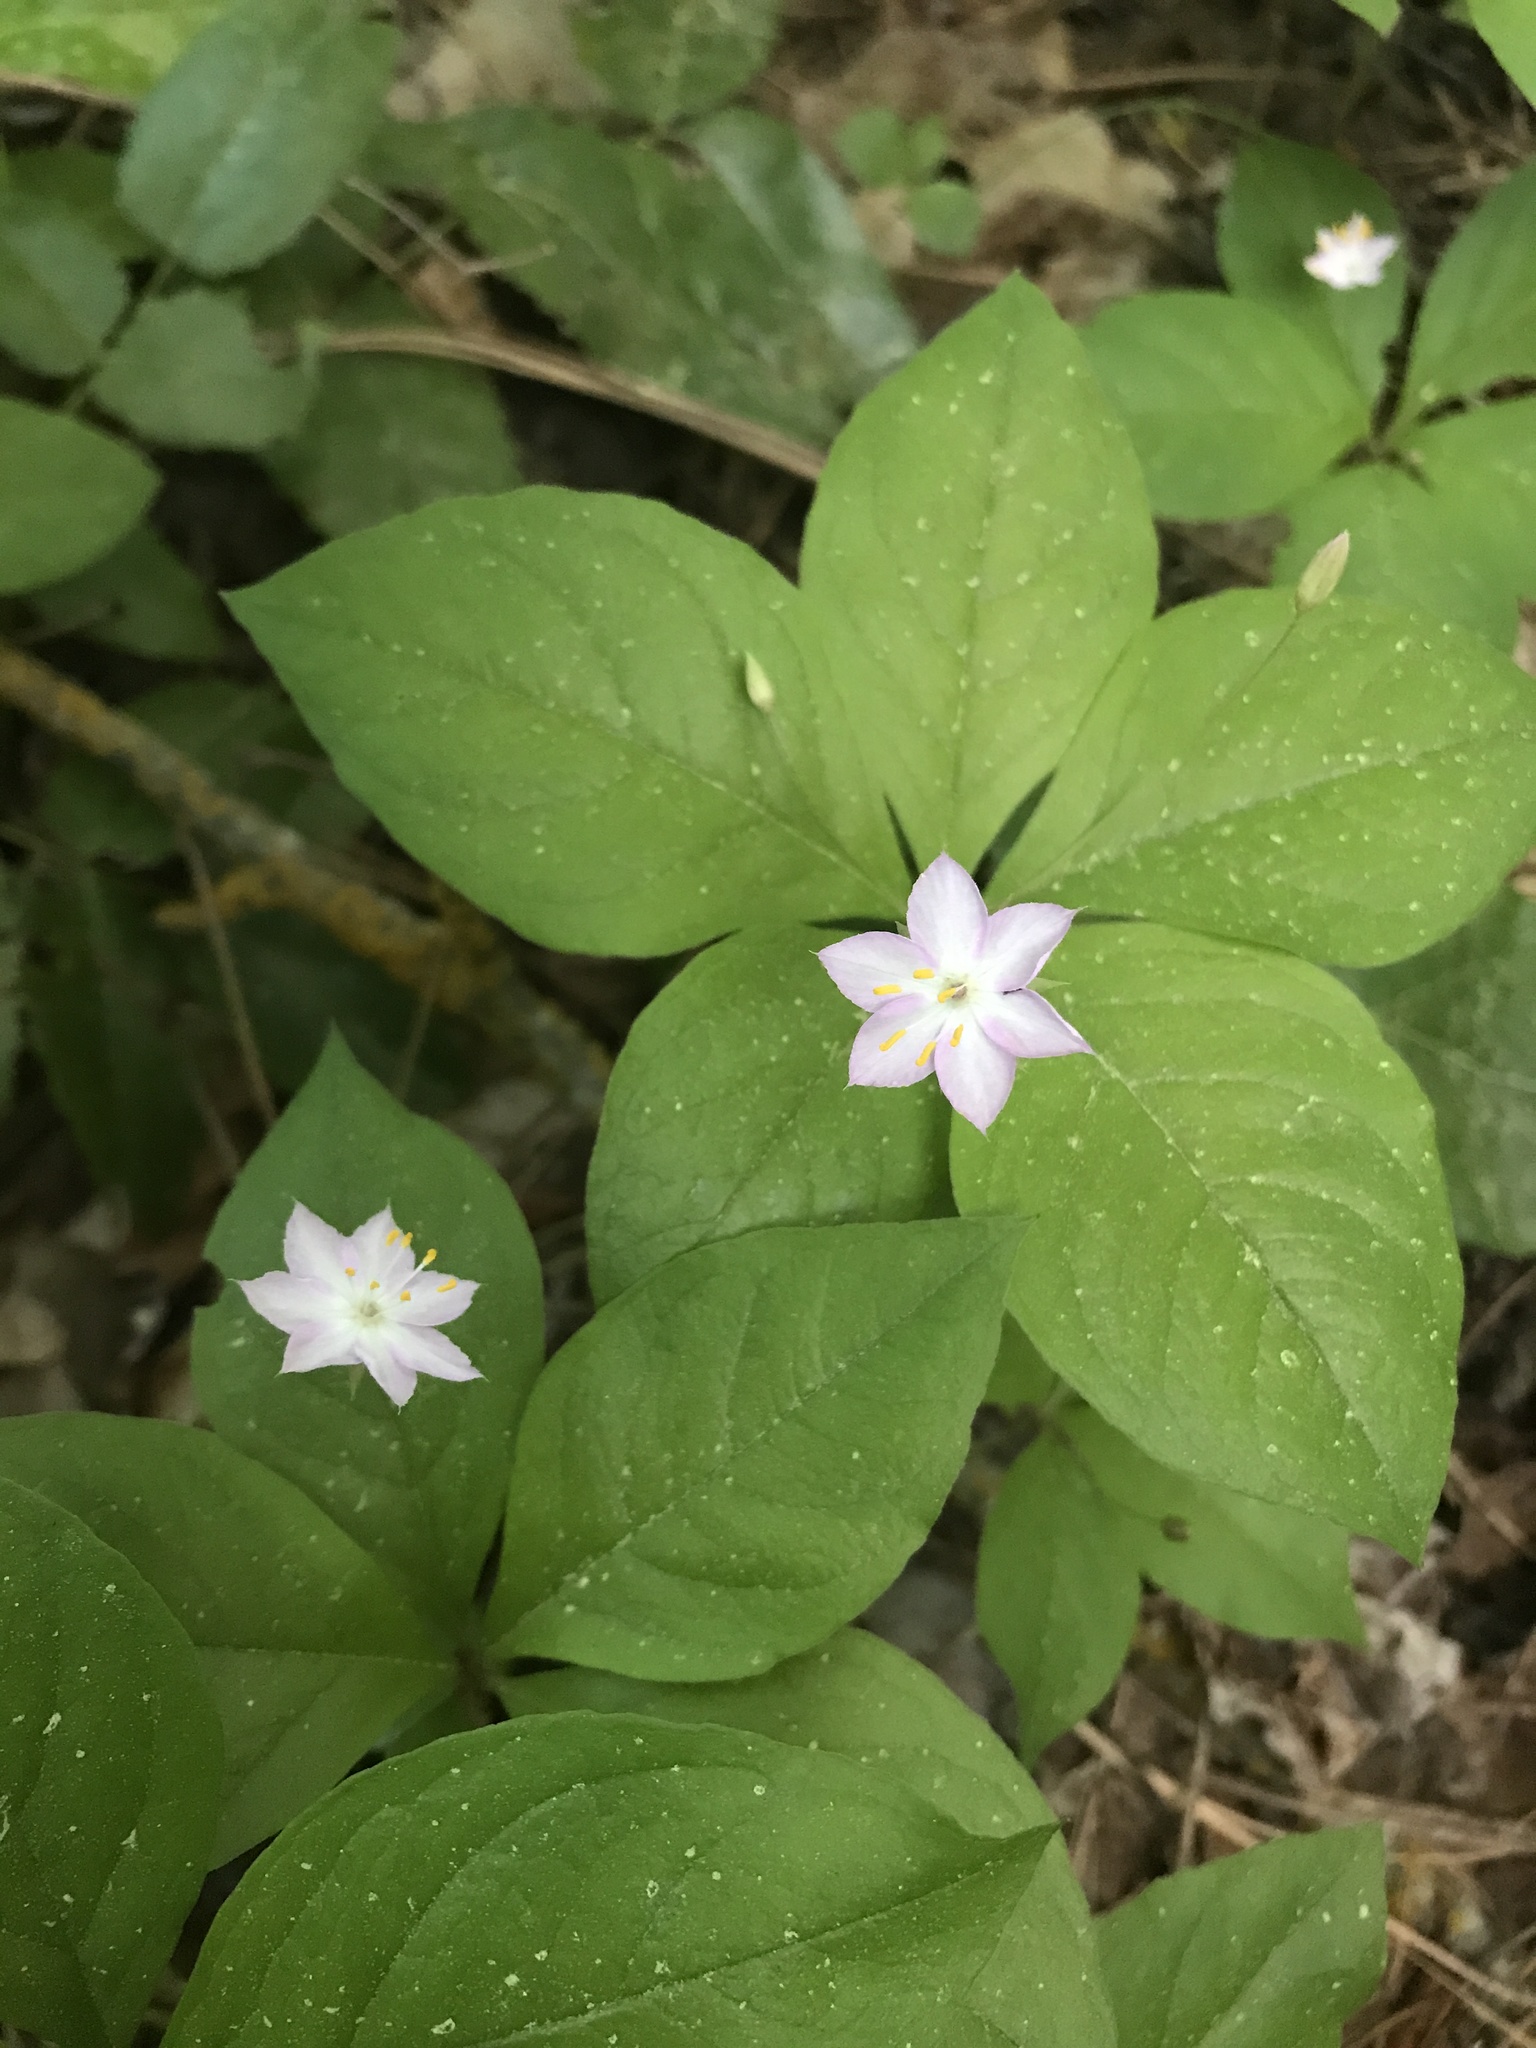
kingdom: Plantae
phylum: Tracheophyta
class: Magnoliopsida
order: Ericales
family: Primulaceae
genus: Lysimachia
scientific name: Lysimachia latifolia
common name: Pacific starflower
